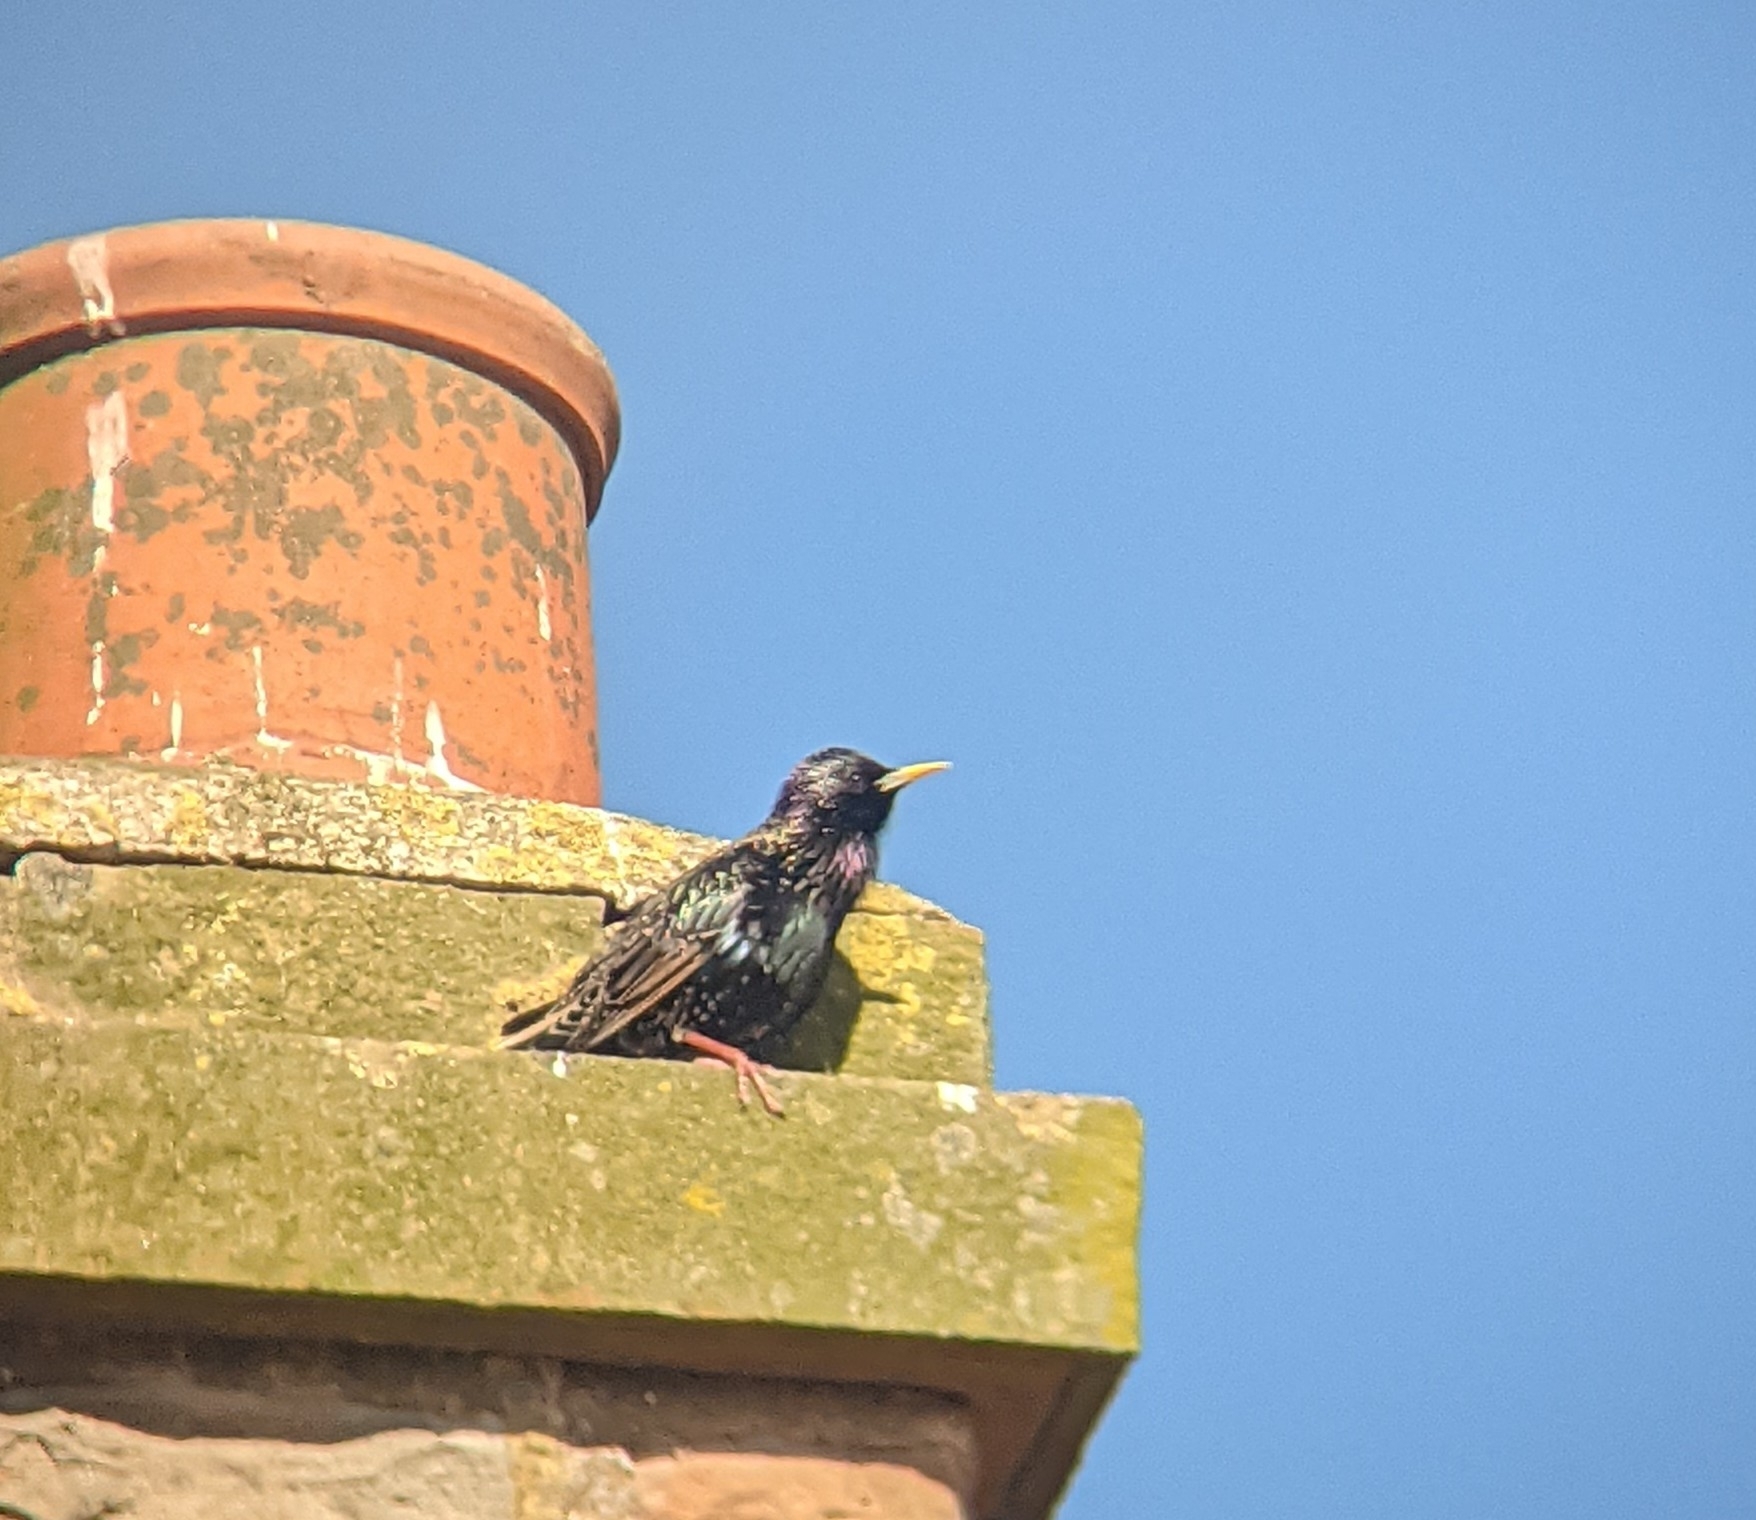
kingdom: Animalia
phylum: Chordata
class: Aves
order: Passeriformes
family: Sturnidae
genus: Sturnus
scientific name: Sturnus vulgaris
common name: Common starling
